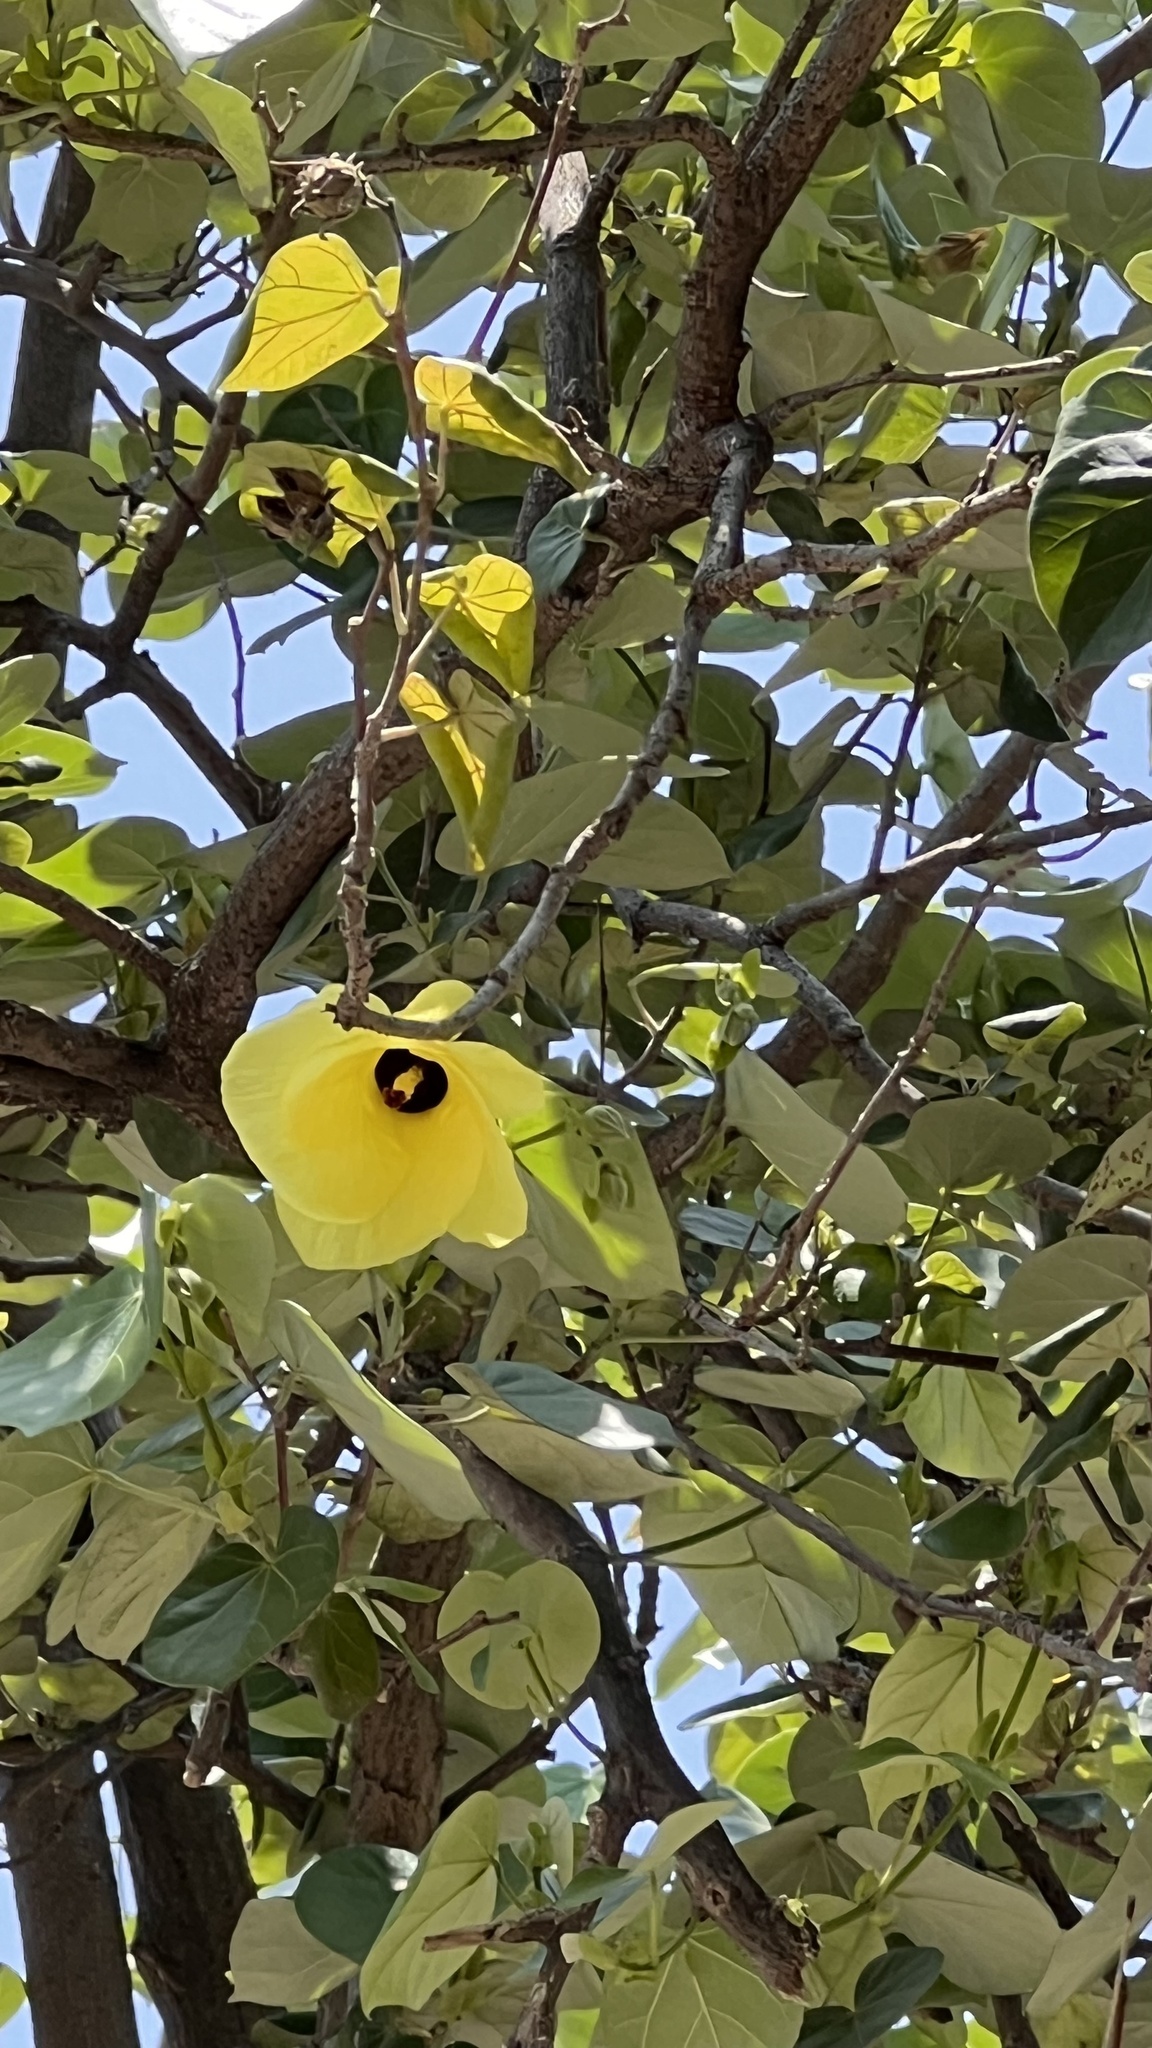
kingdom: Plantae
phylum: Tracheophyta
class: Magnoliopsida
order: Malvales
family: Malvaceae
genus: Talipariti
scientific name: Talipariti tiliaceum
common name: Sea hibiscus
